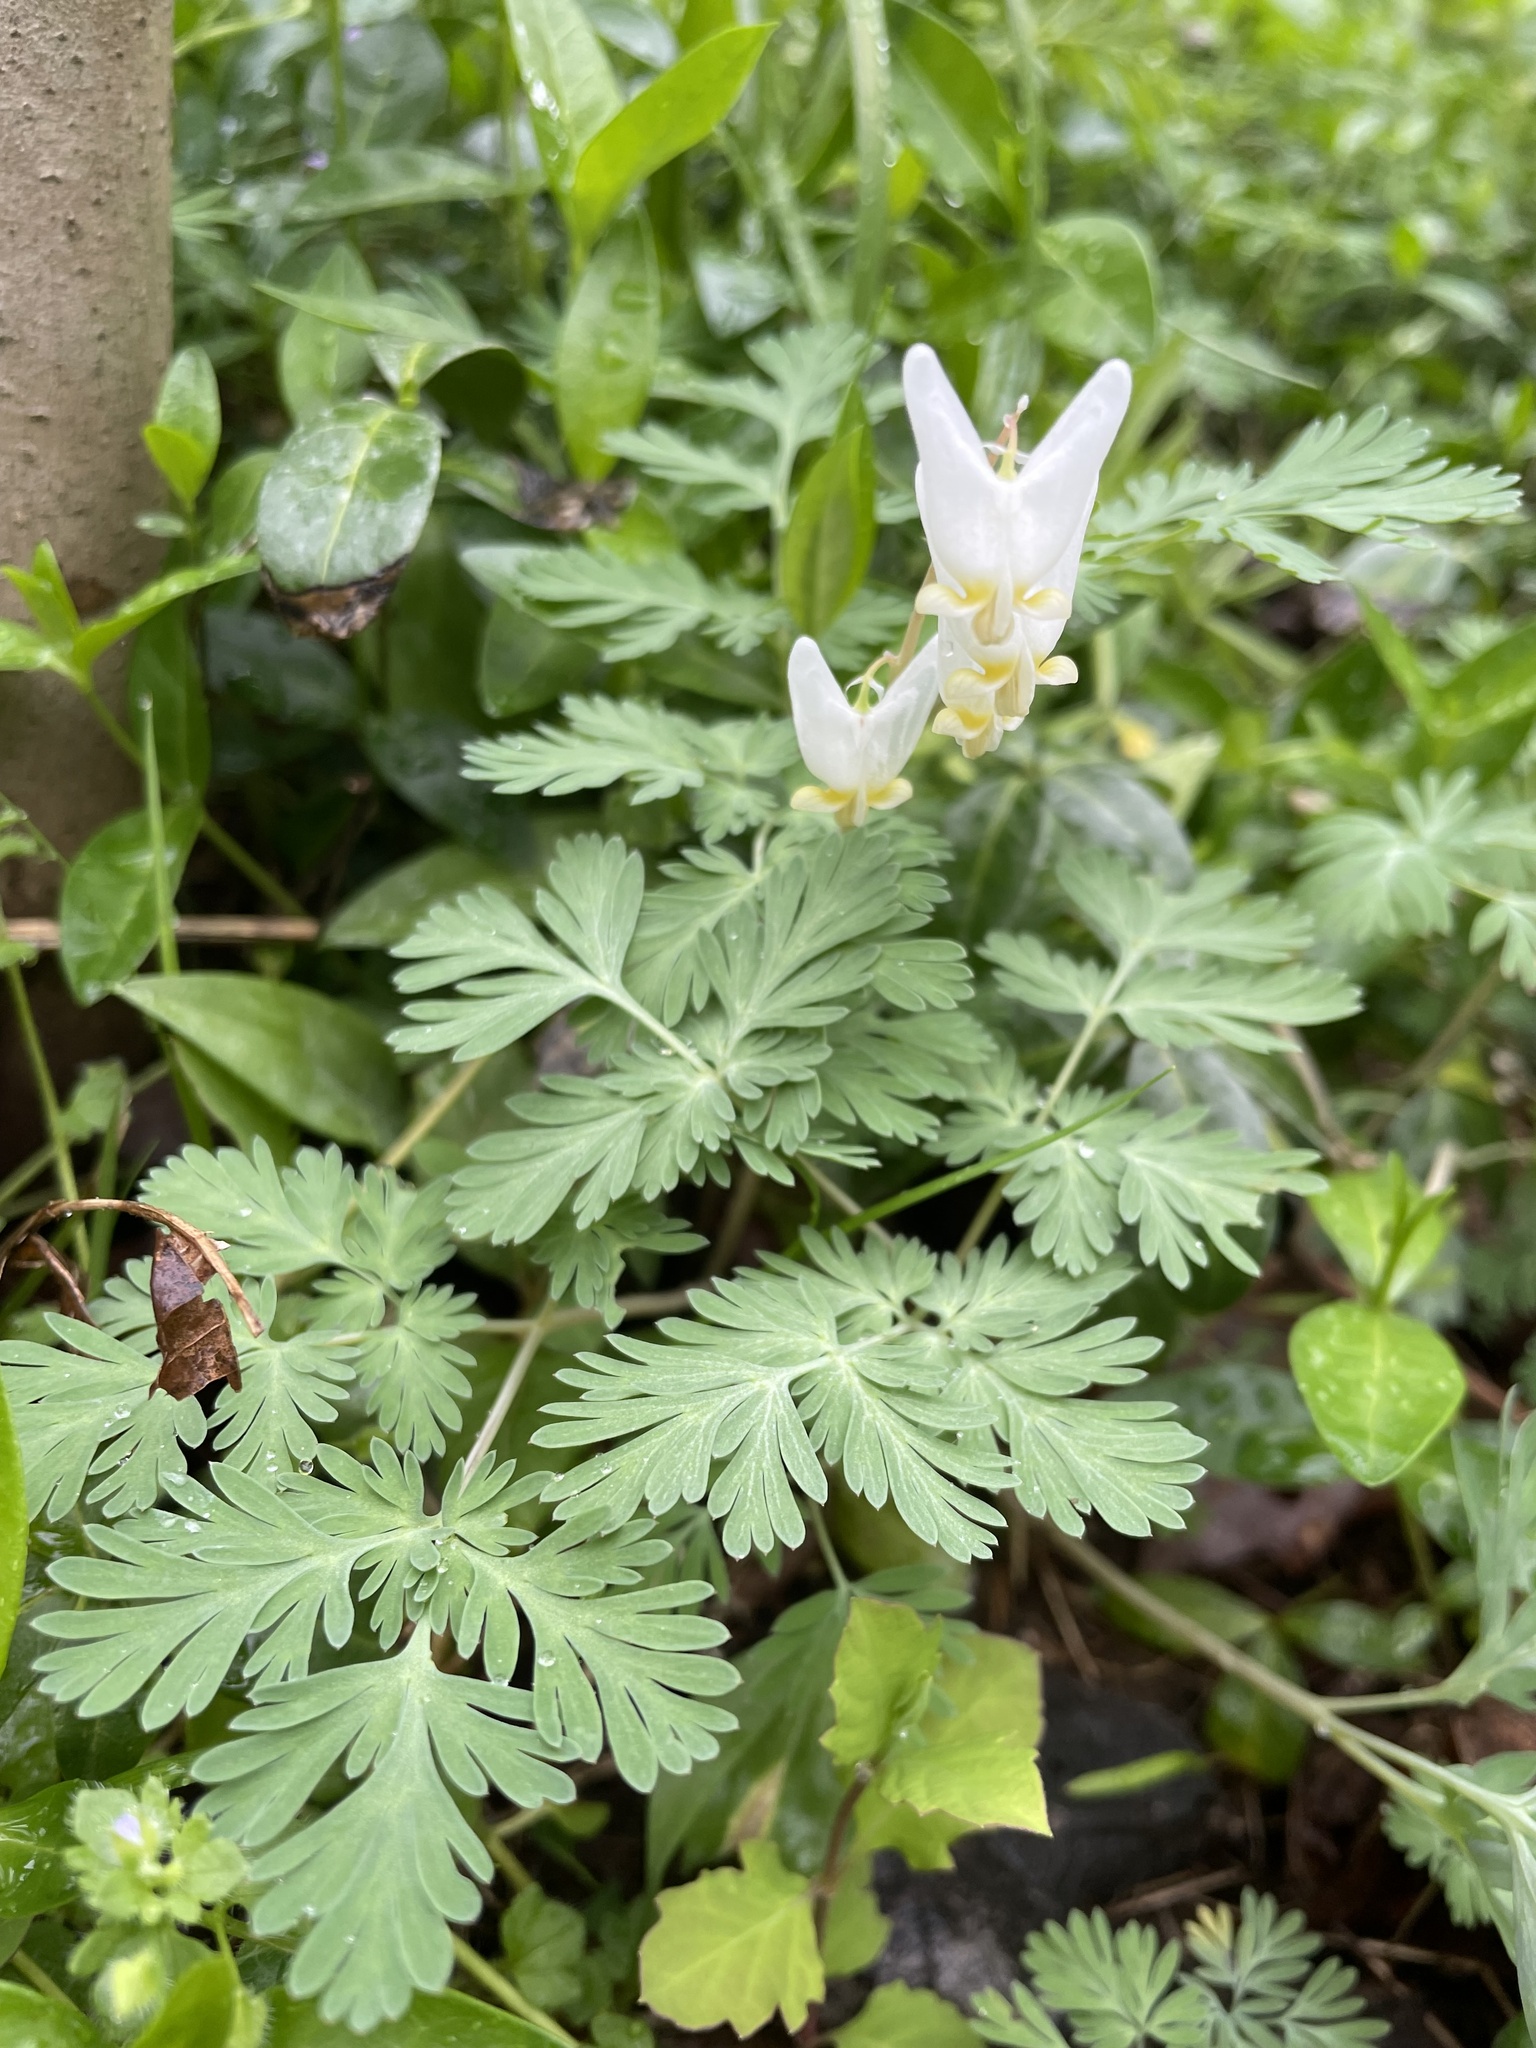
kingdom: Plantae
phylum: Tracheophyta
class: Magnoliopsida
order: Ranunculales
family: Papaveraceae
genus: Dicentra
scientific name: Dicentra cucullaria
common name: Dutchman's breeches
